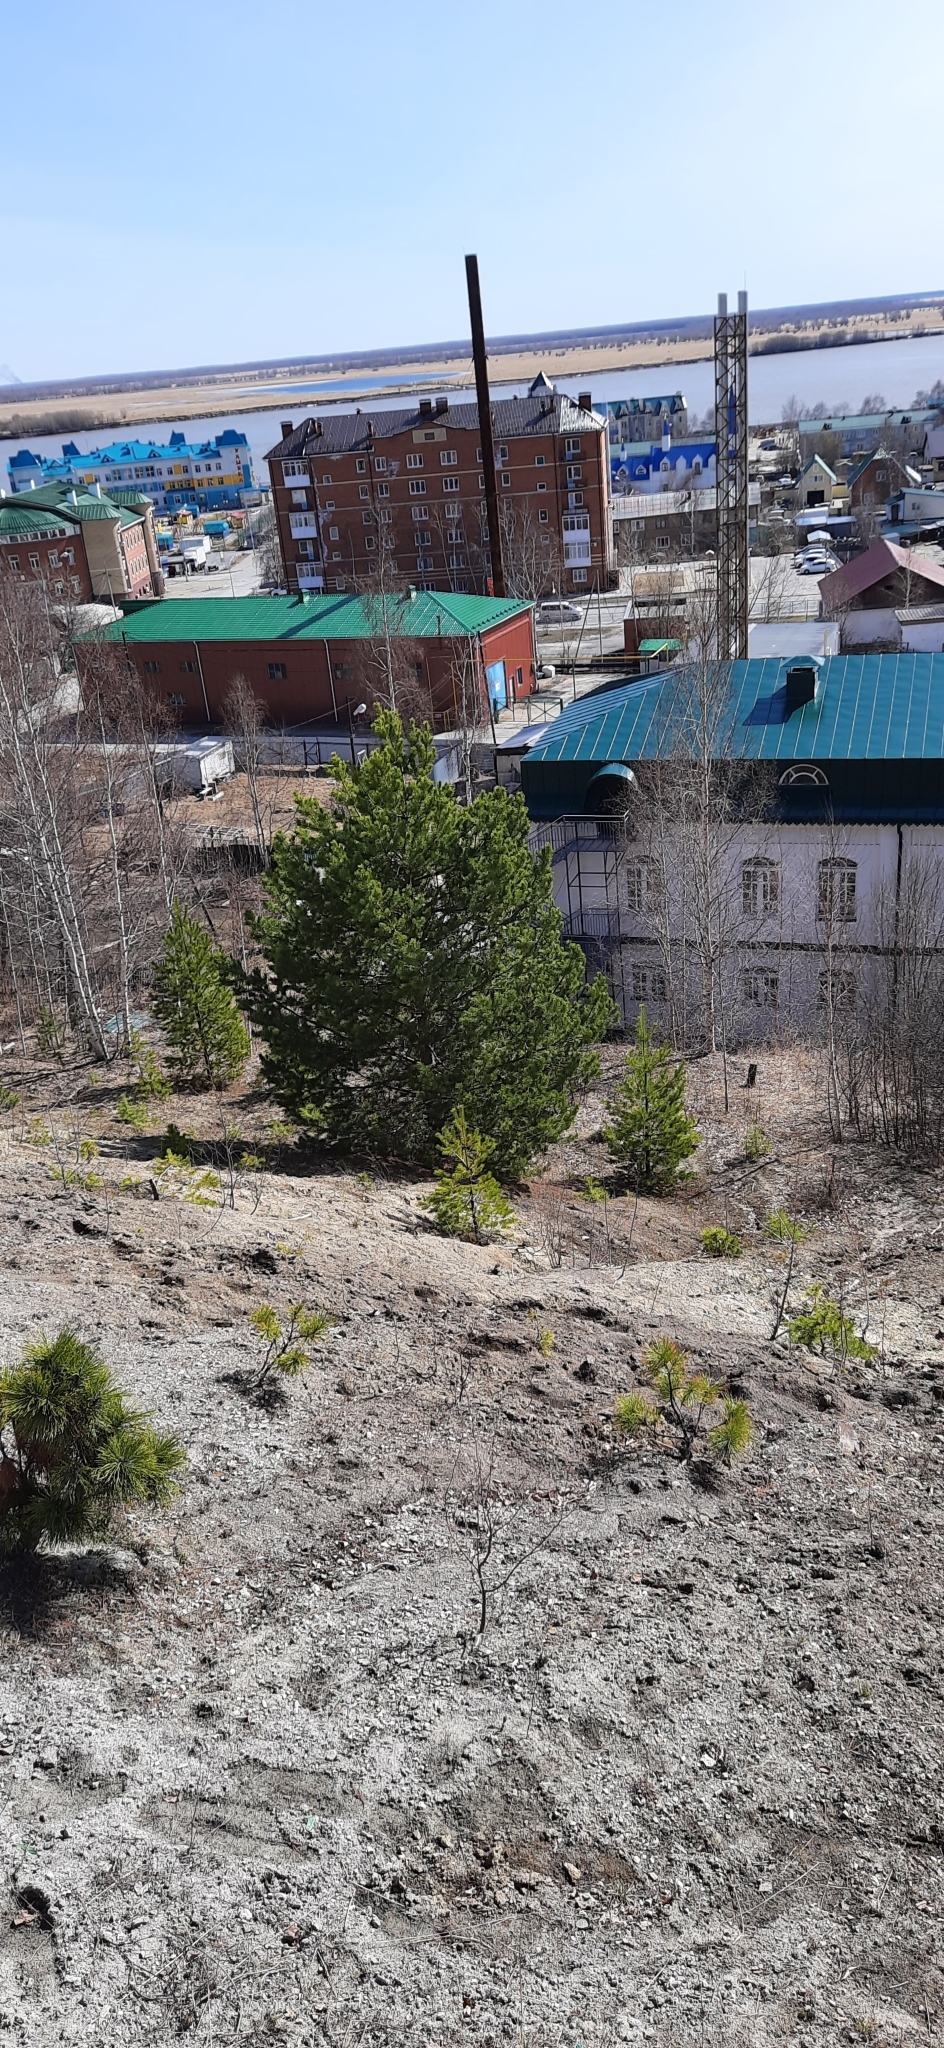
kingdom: Plantae
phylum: Tracheophyta
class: Pinopsida
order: Pinales
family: Pinaceae
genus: Pinus
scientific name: Pinus sylvestris
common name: Scots pine
